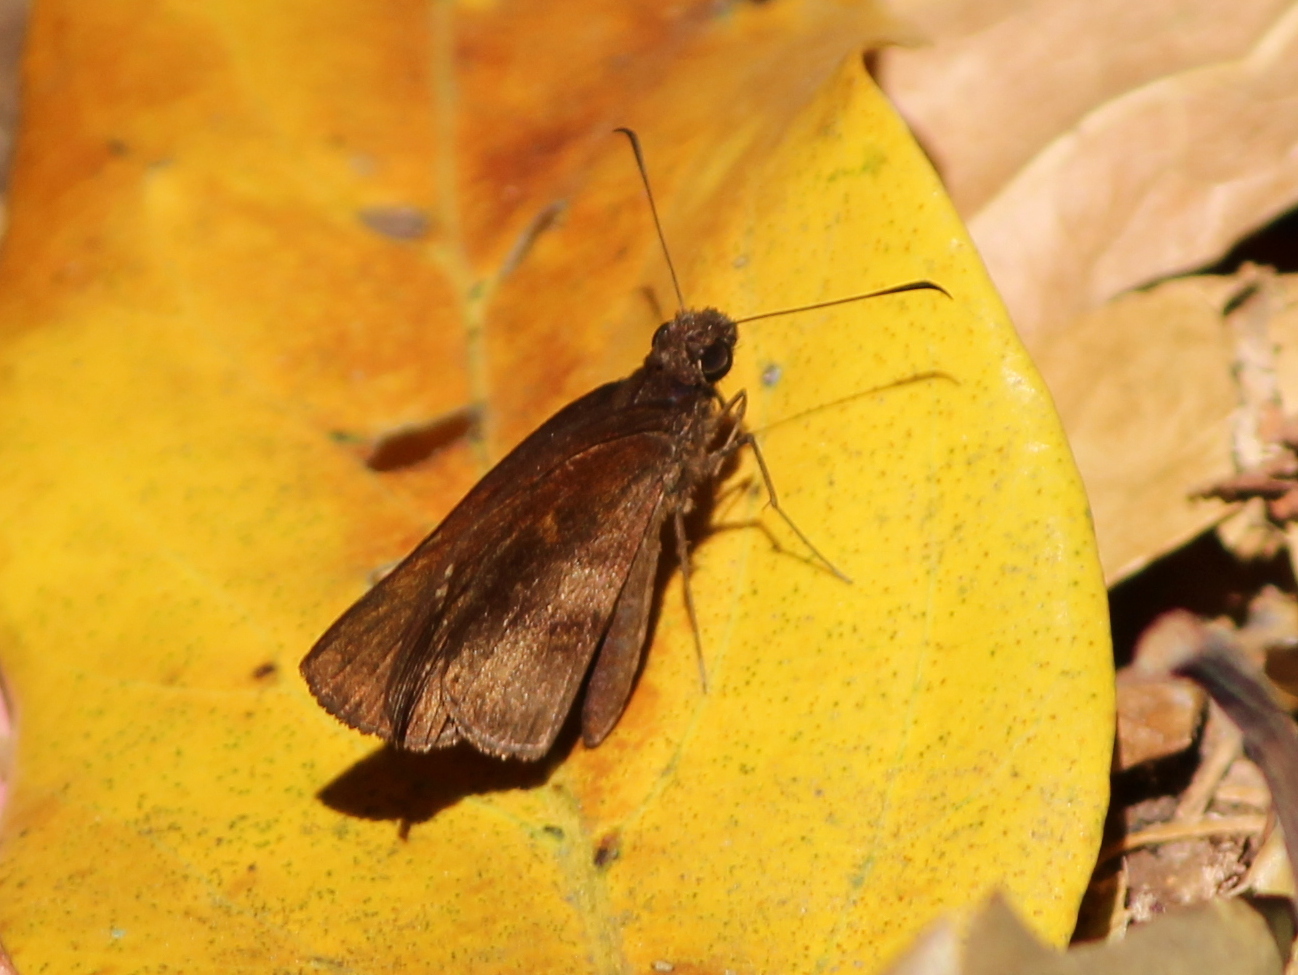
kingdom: Animalia
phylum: Arthropoda
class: Insecta
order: Lepidoptera
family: Hesperiidae
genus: Psolos
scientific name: Psolos fuligo
